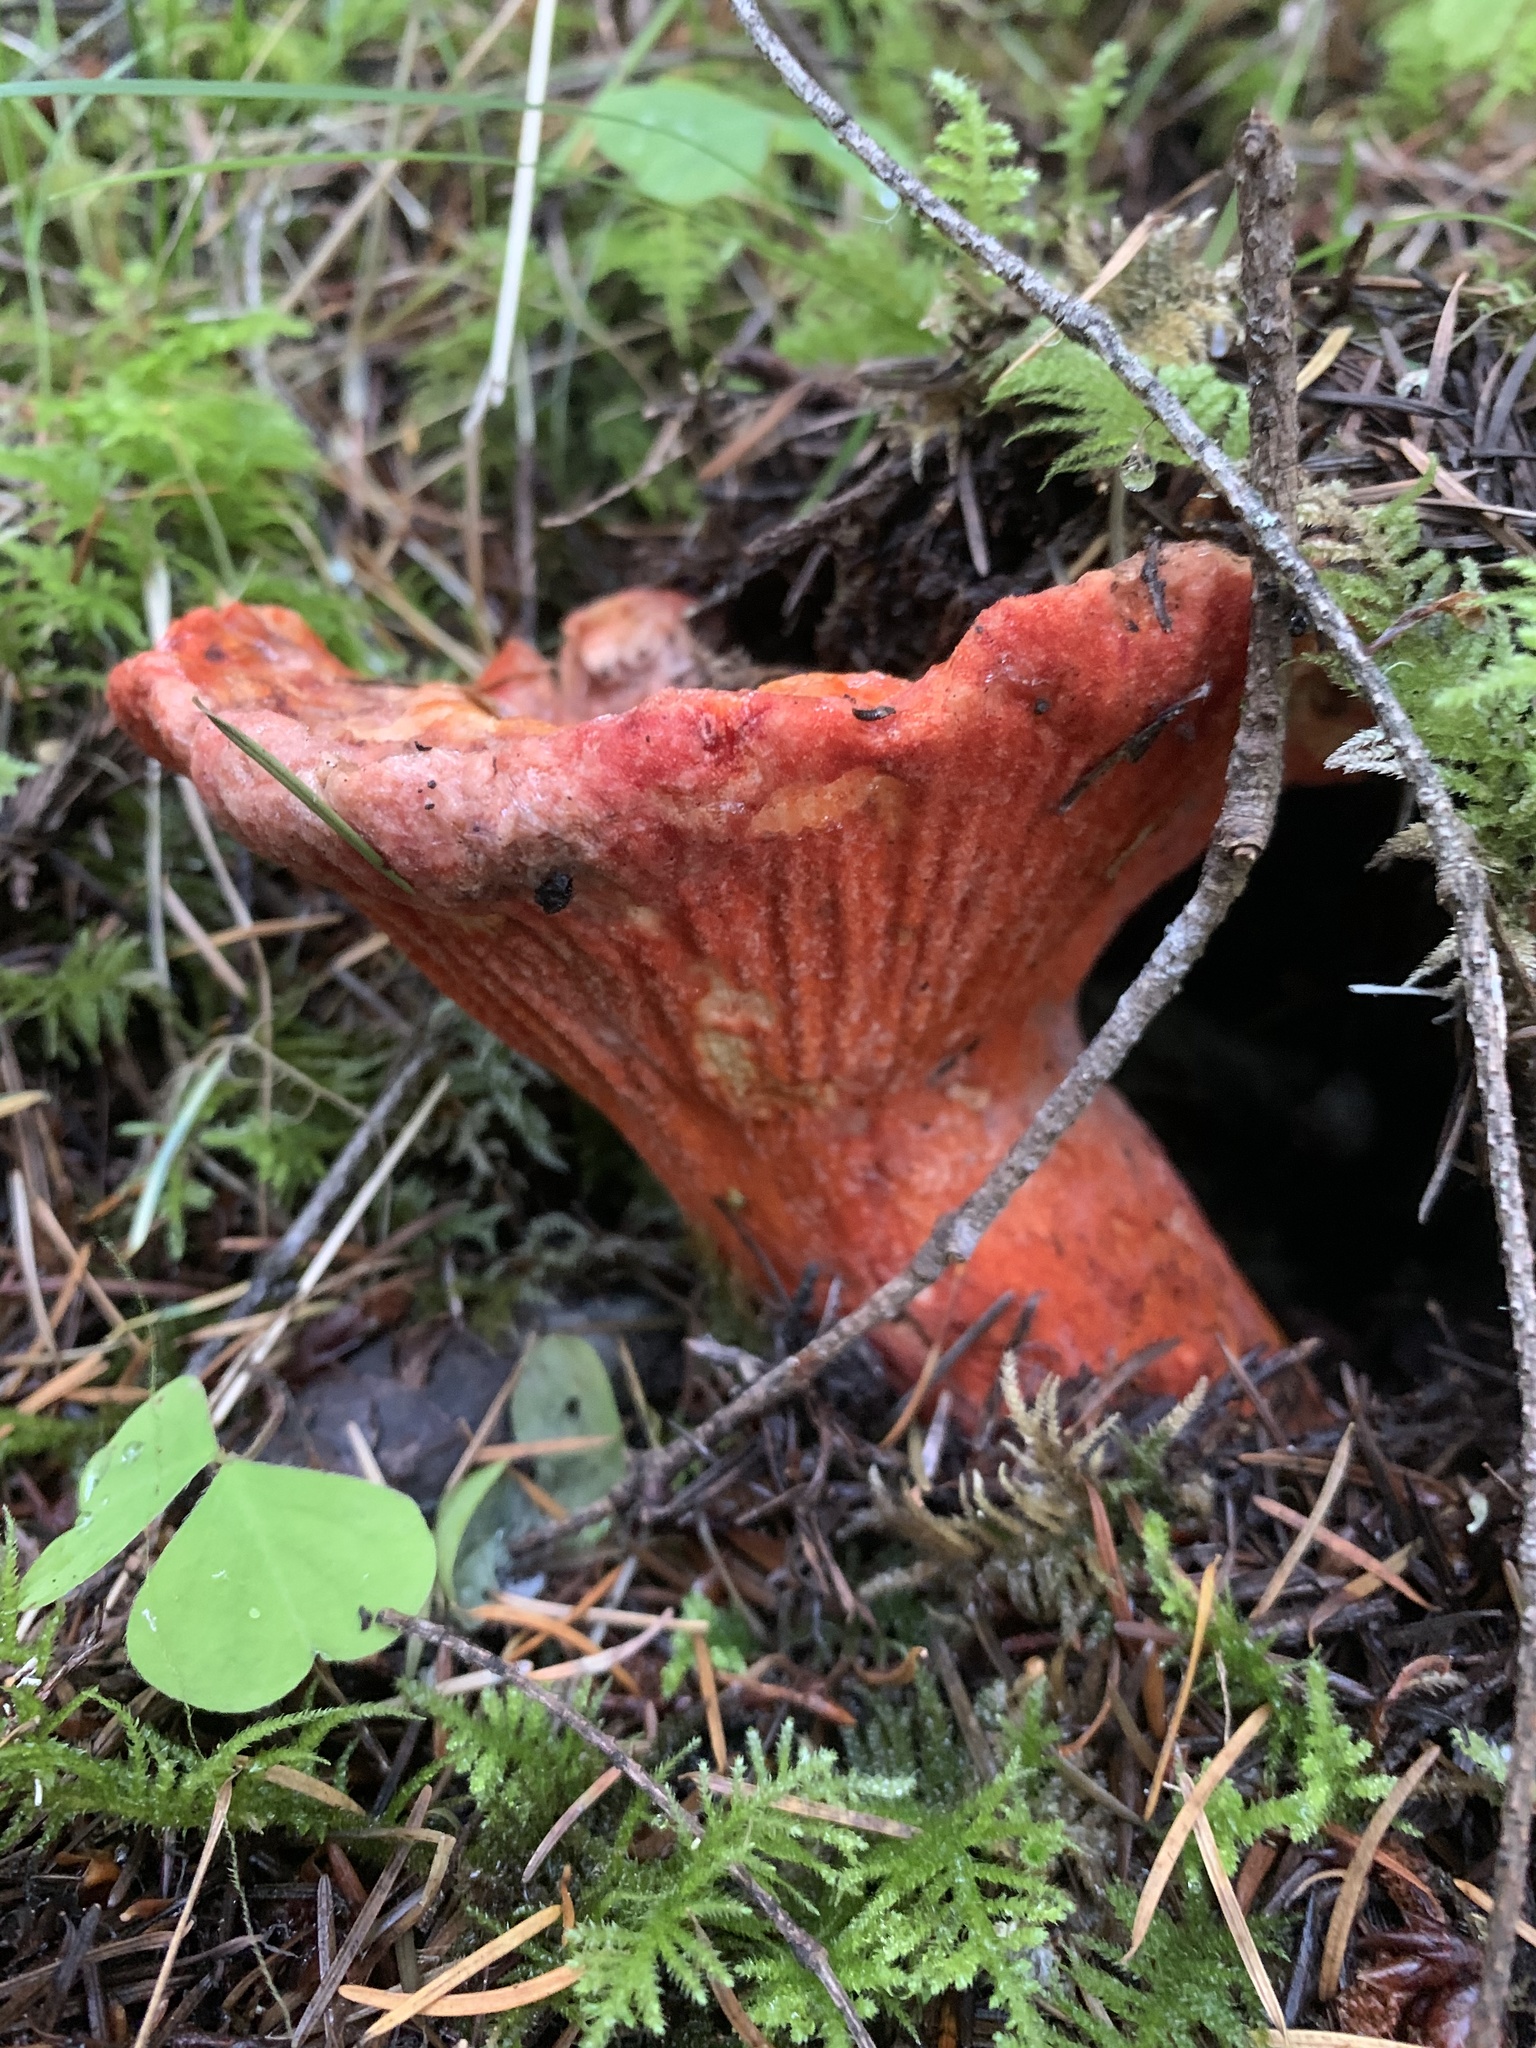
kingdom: Fungi
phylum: Ascomycota
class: Sordariomycetes
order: Hypocreales
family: Hypocreaceae
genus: Hypomyces
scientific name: Hypomyces lactifluorum
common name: Lobster mushroom
